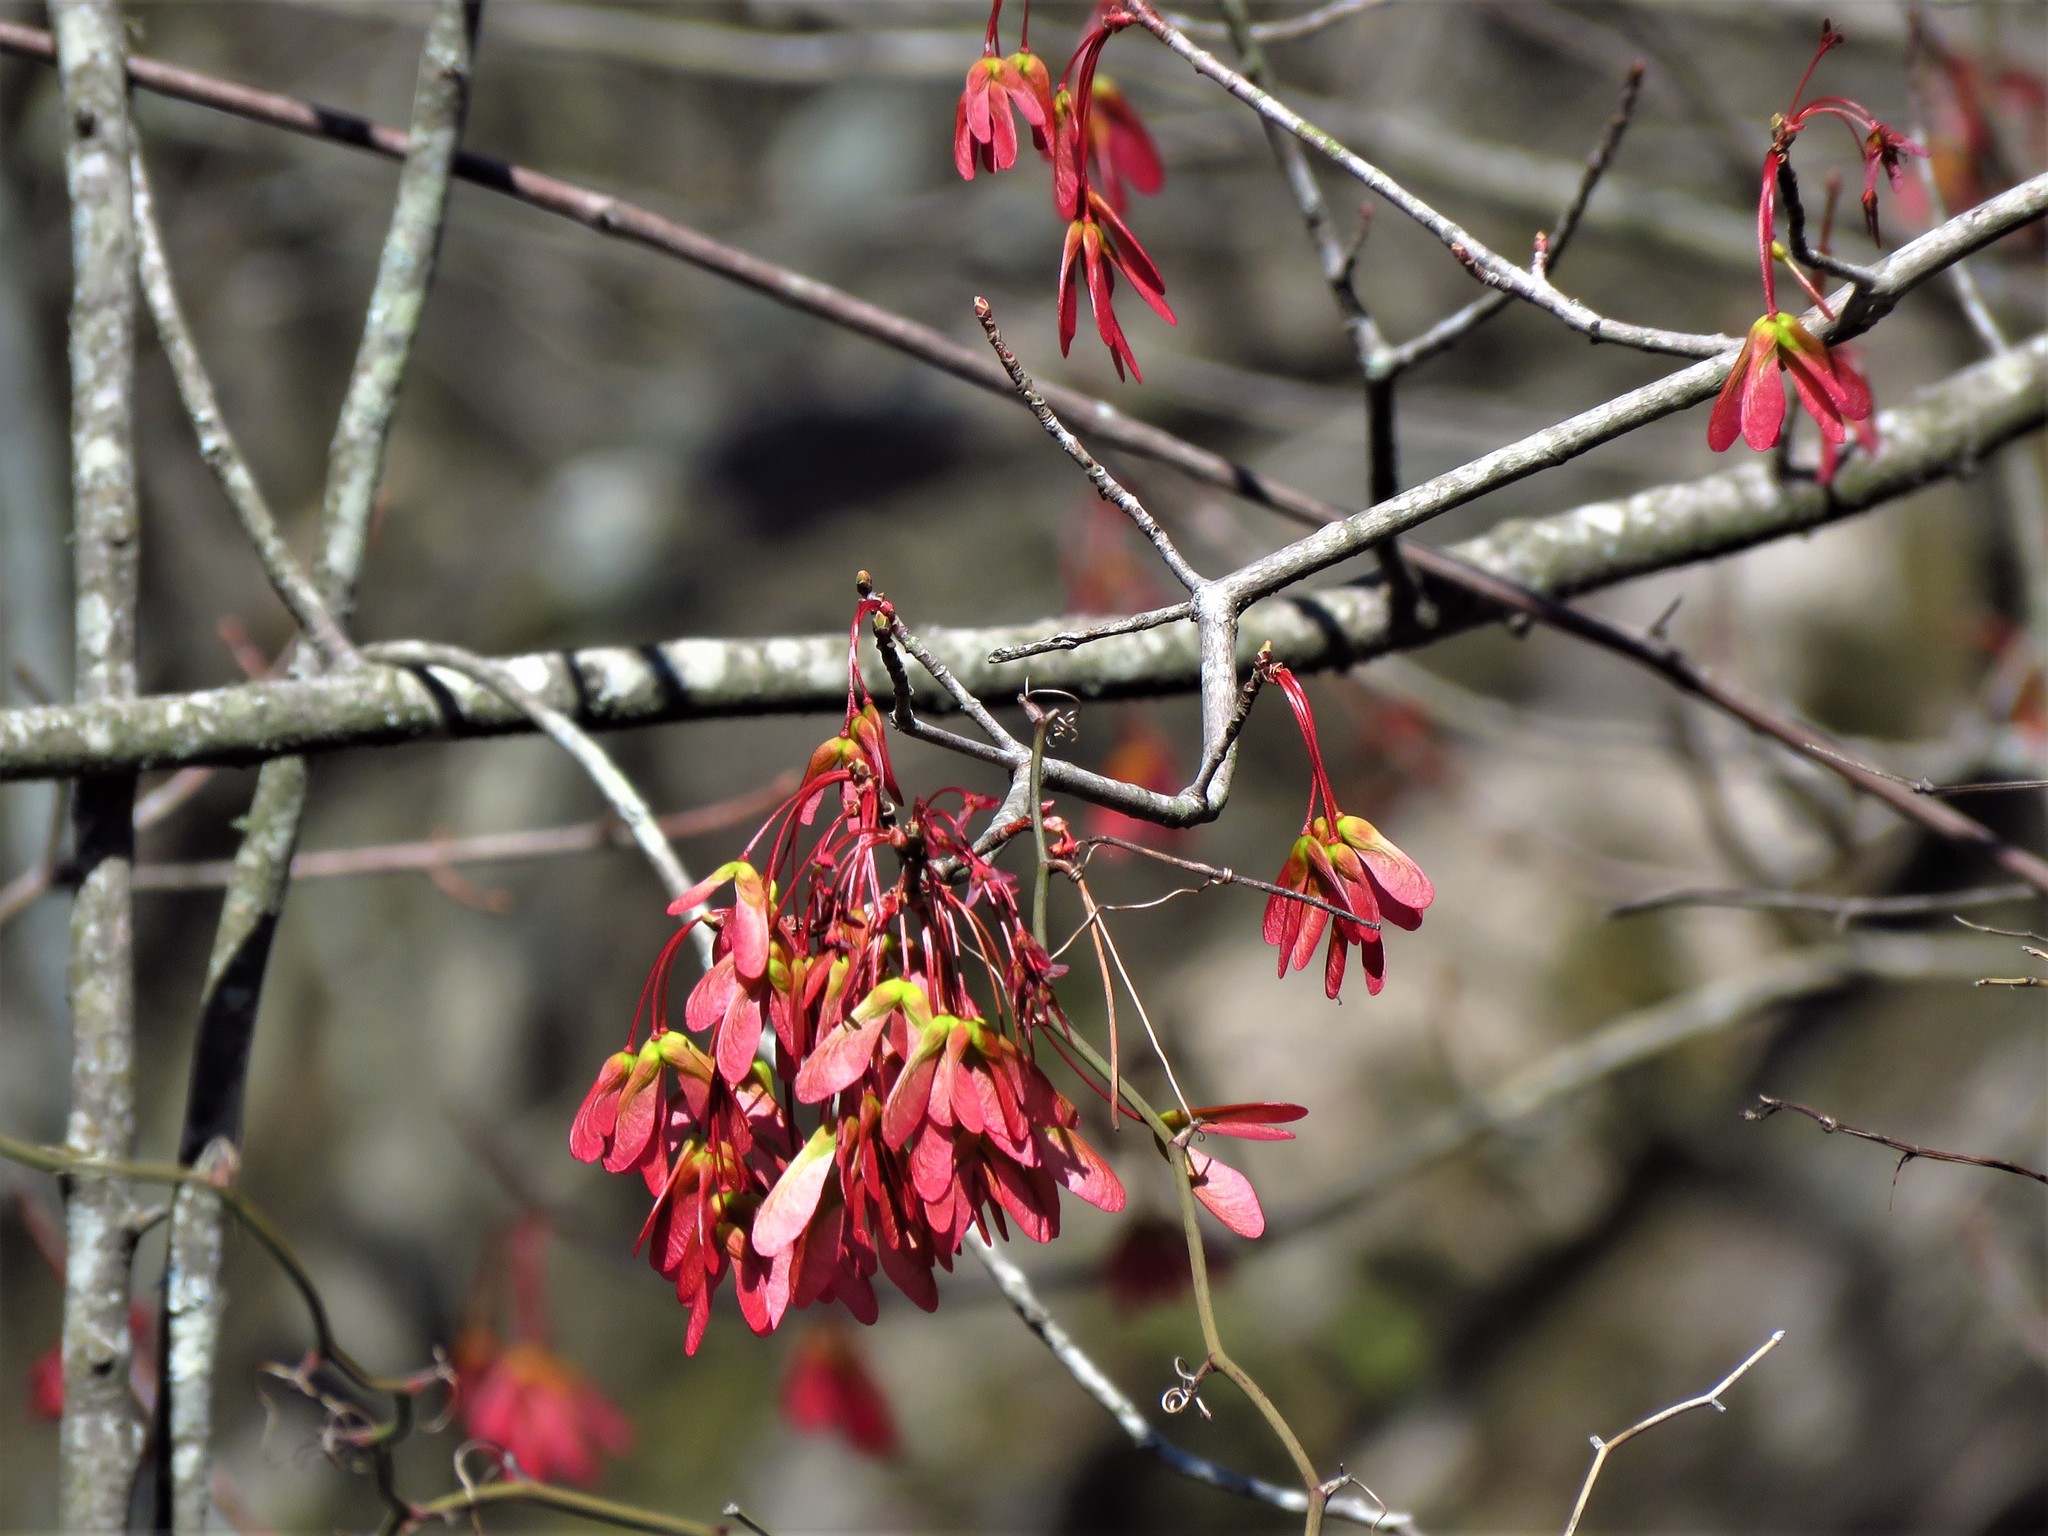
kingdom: Plantae
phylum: Tracheophyta
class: Magnoliopsida
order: Sapindales
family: Sapindaceae
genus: Acer
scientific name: Acer rubrum
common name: Red maple
